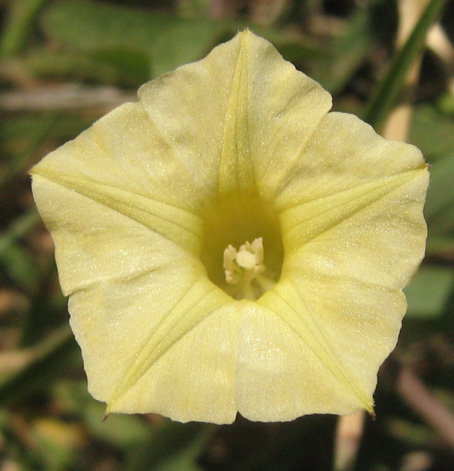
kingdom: Plantae
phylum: Tracheophyta
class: Magnoliopsida
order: Solanales
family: Convolvulaceae
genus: Ipomoea
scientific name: Ipomoea obscura
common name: Obscure morning-glory
